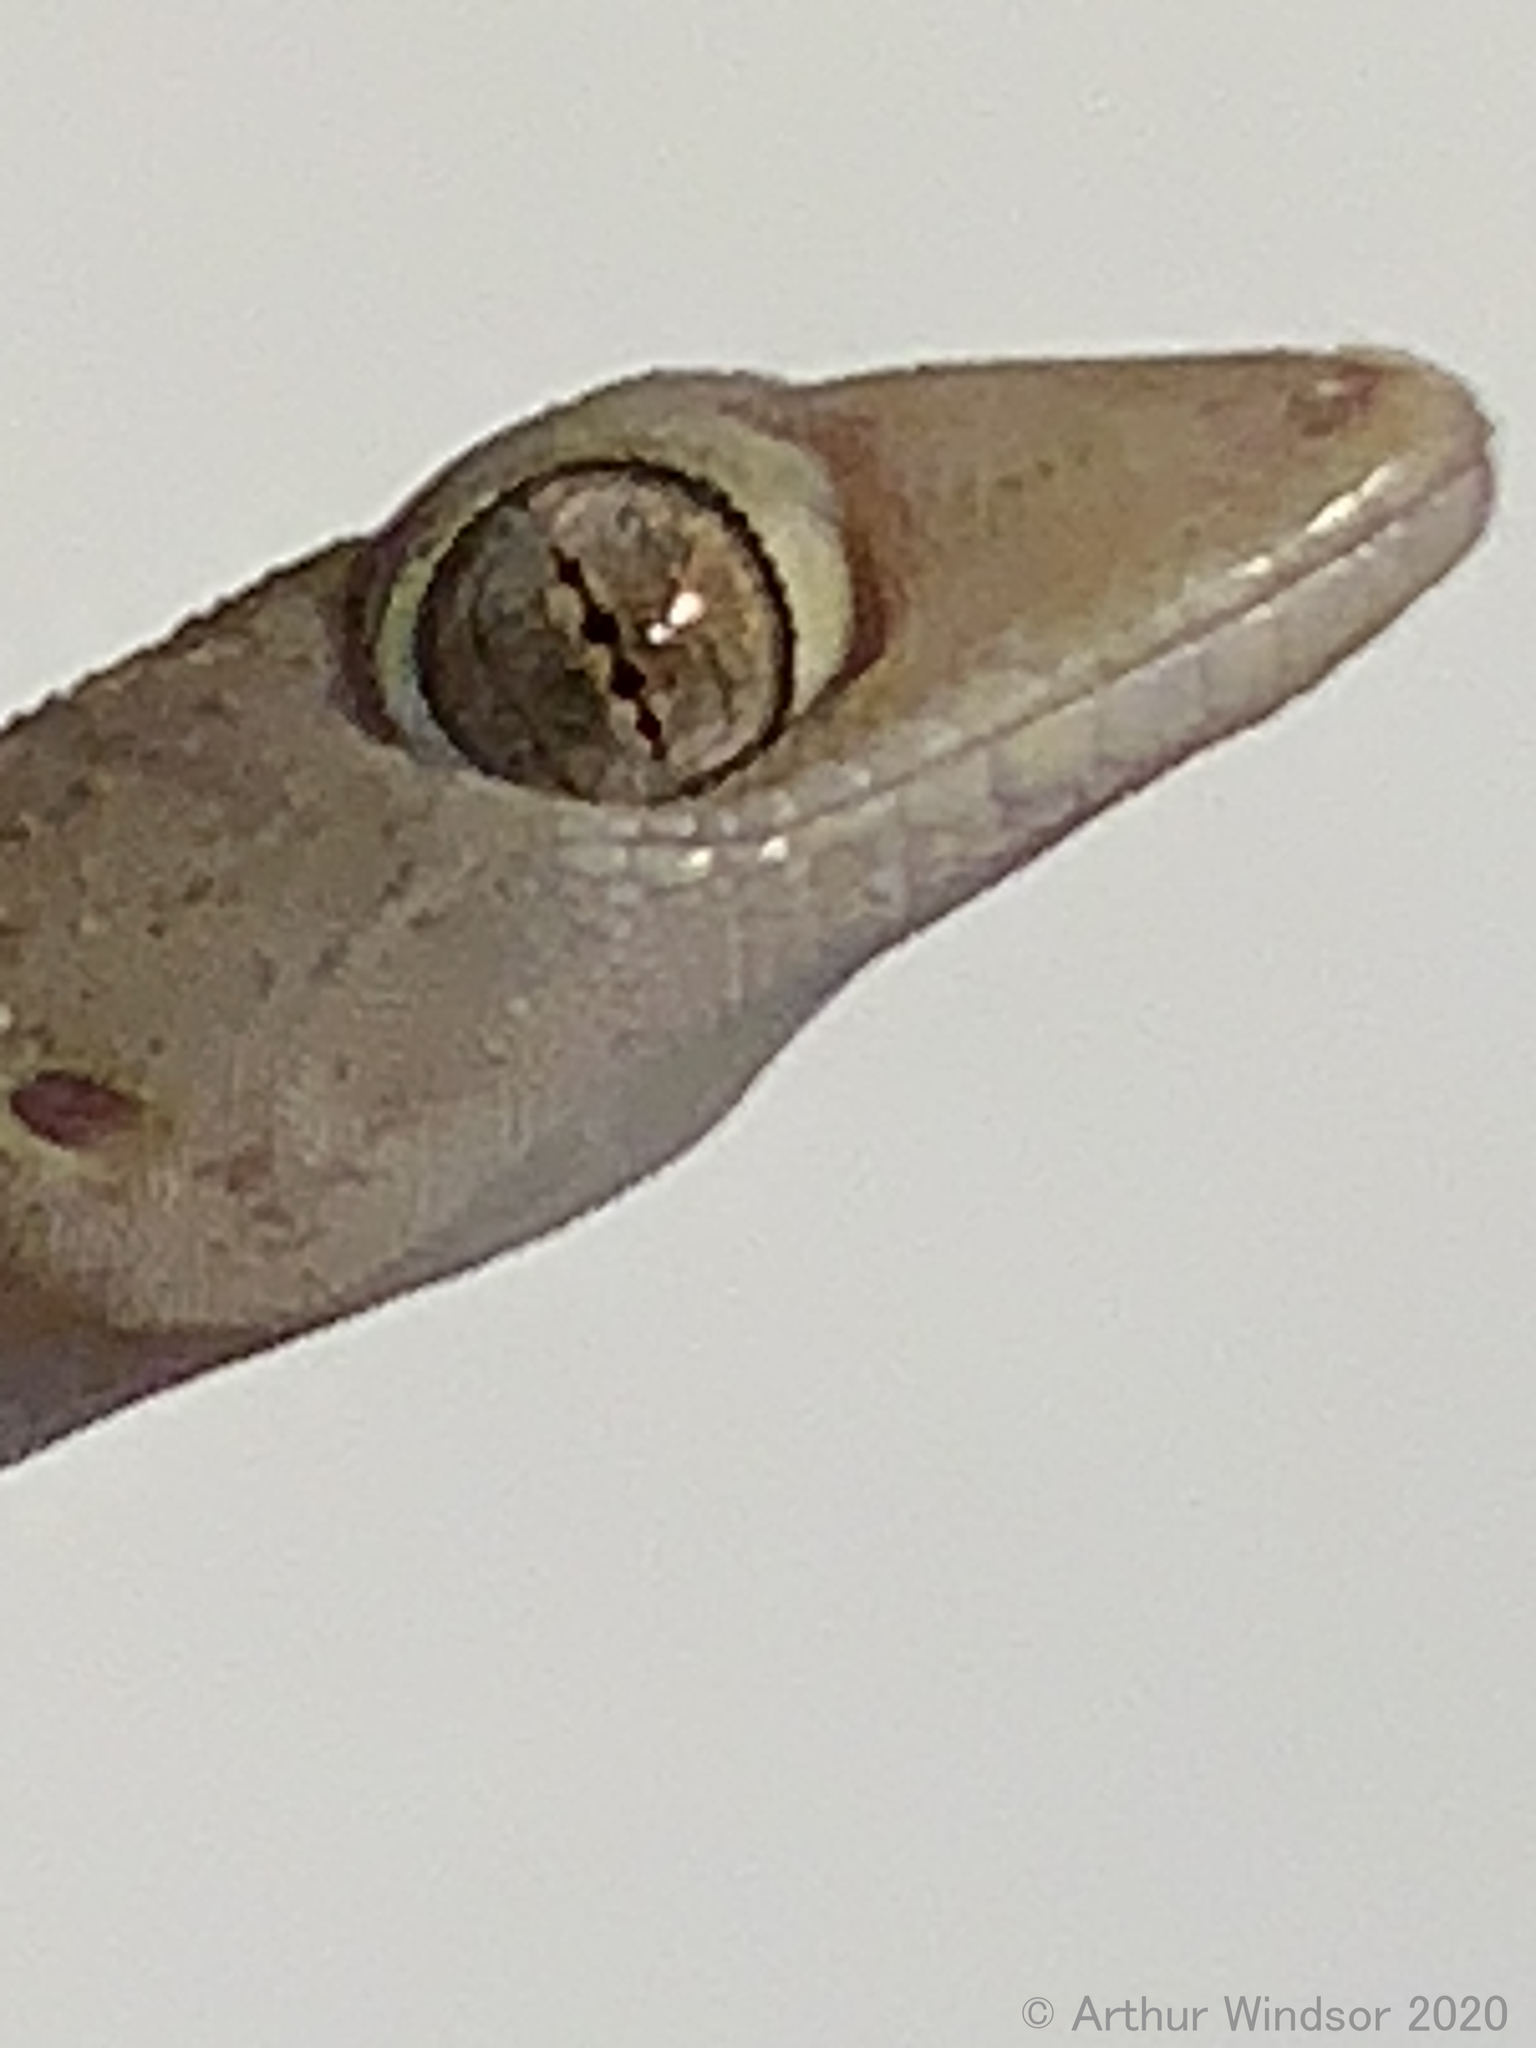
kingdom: Animalia
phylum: Chordata
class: Squamata
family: Gekkonidae
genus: Hemidactylus
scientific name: Hemidactylus mabouia
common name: House gecko
